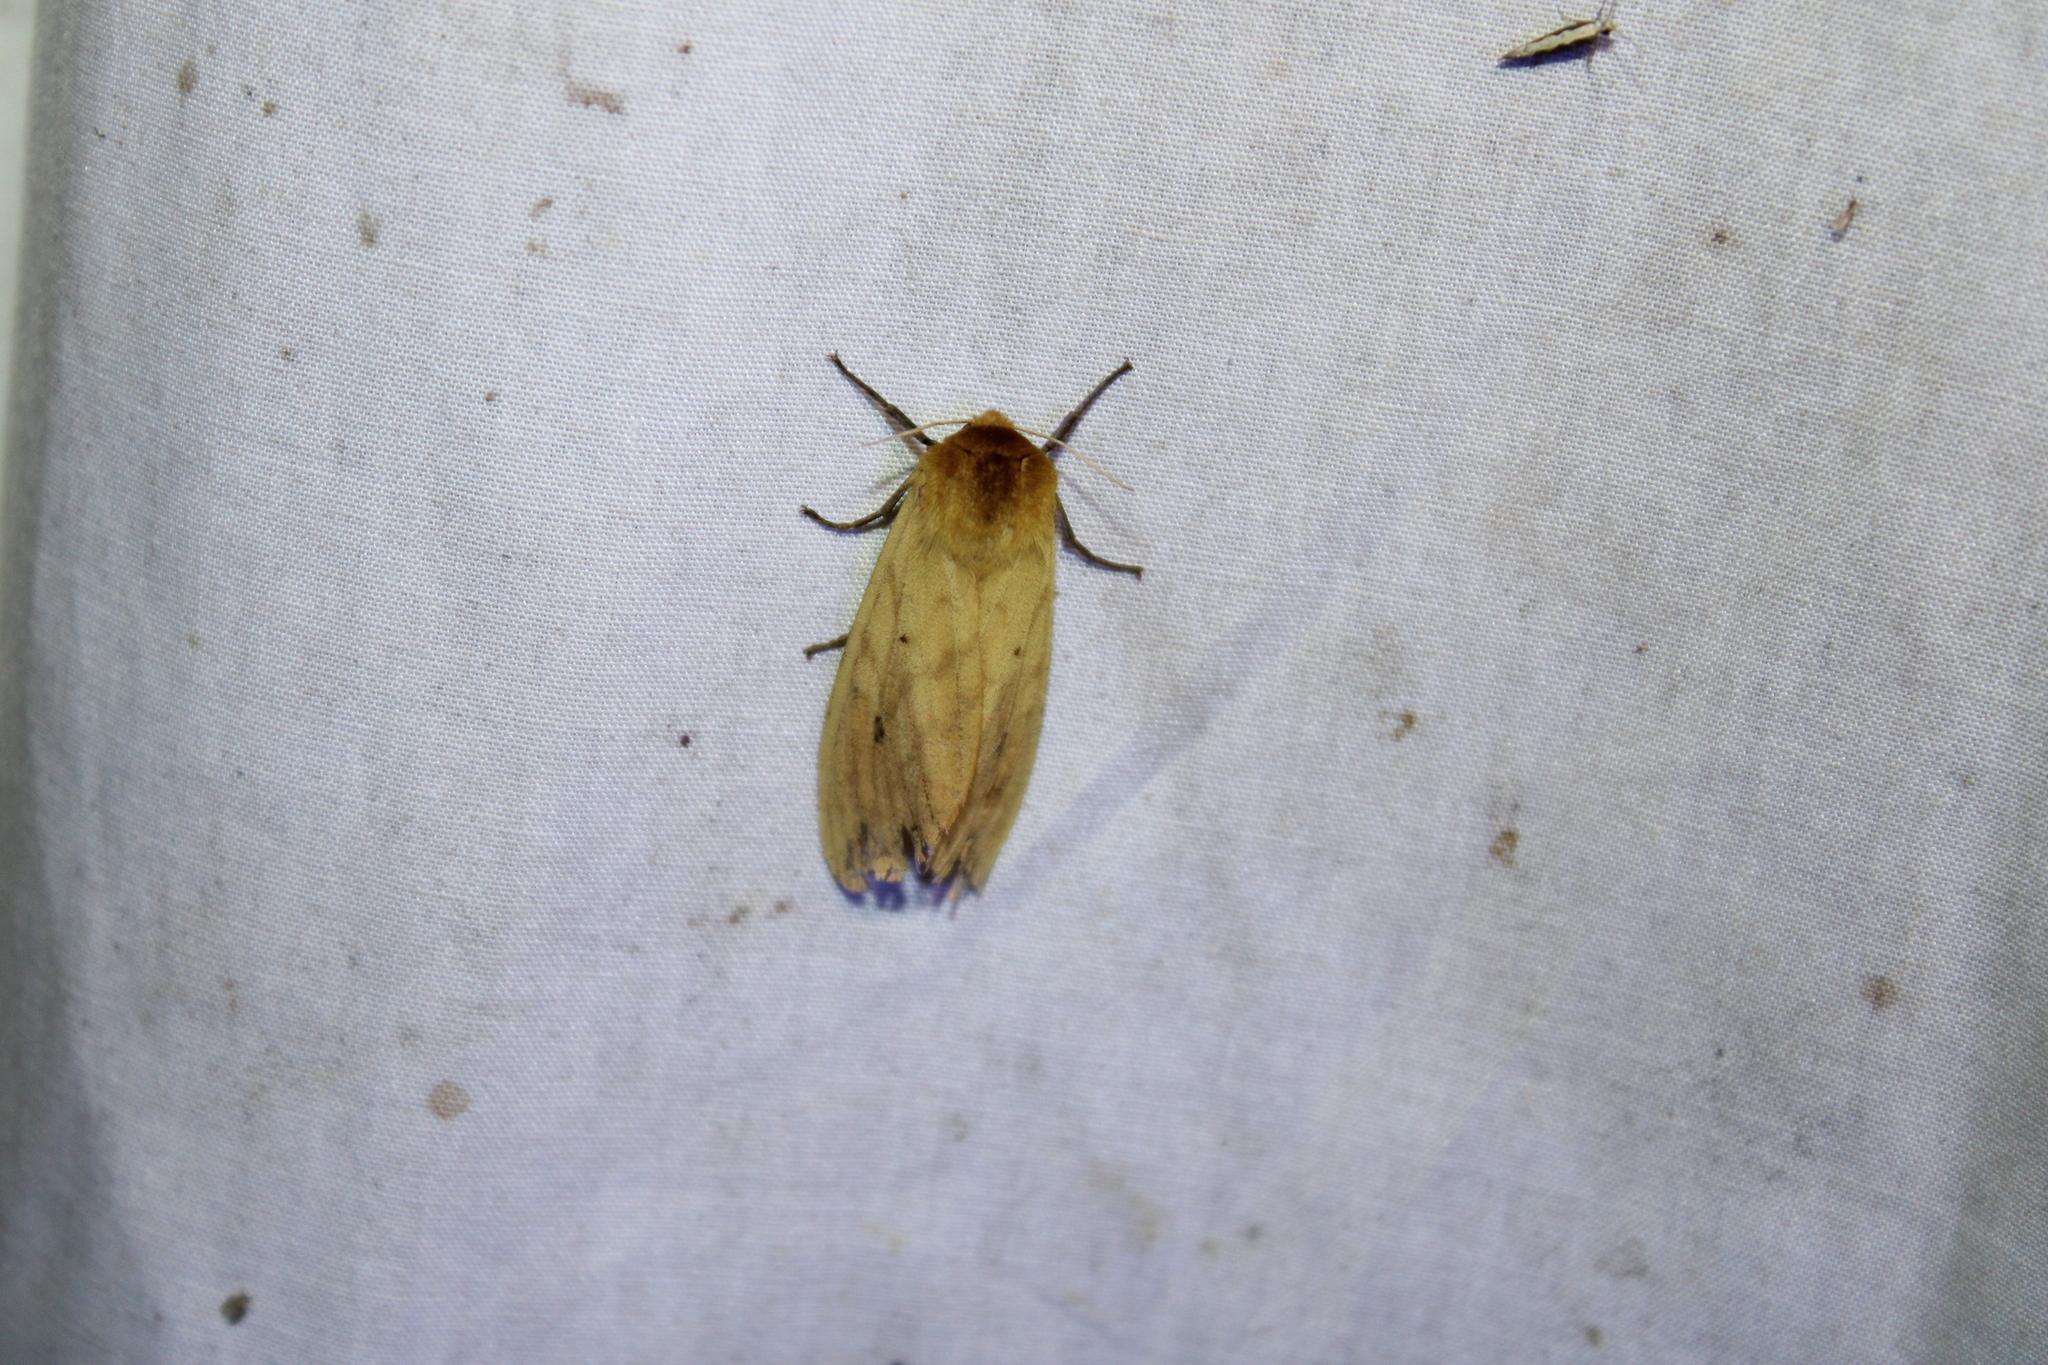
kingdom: Animalia
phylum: Arthropoda
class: Insecta
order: Lepidoptera
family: Erebidae
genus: Pyrrharctia
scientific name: Pyrrharctia isabella
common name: Isabella tiger moth
